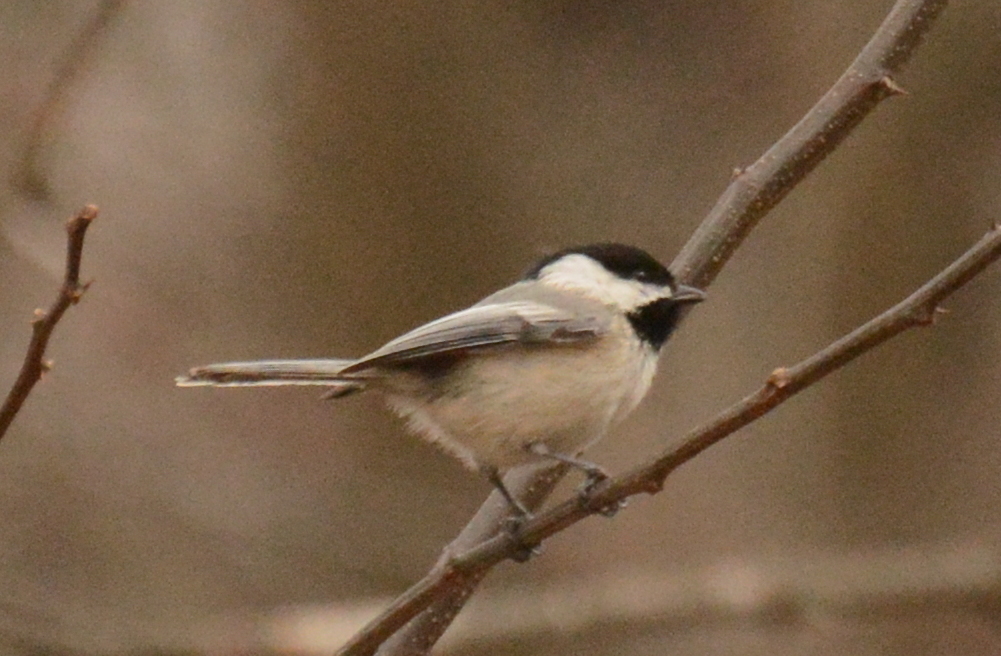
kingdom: Animalia
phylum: Chordata
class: Aves
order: Passeriformes
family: Paridae
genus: Poecile
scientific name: Poecile atricapillus
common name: Black-capped chickadee
